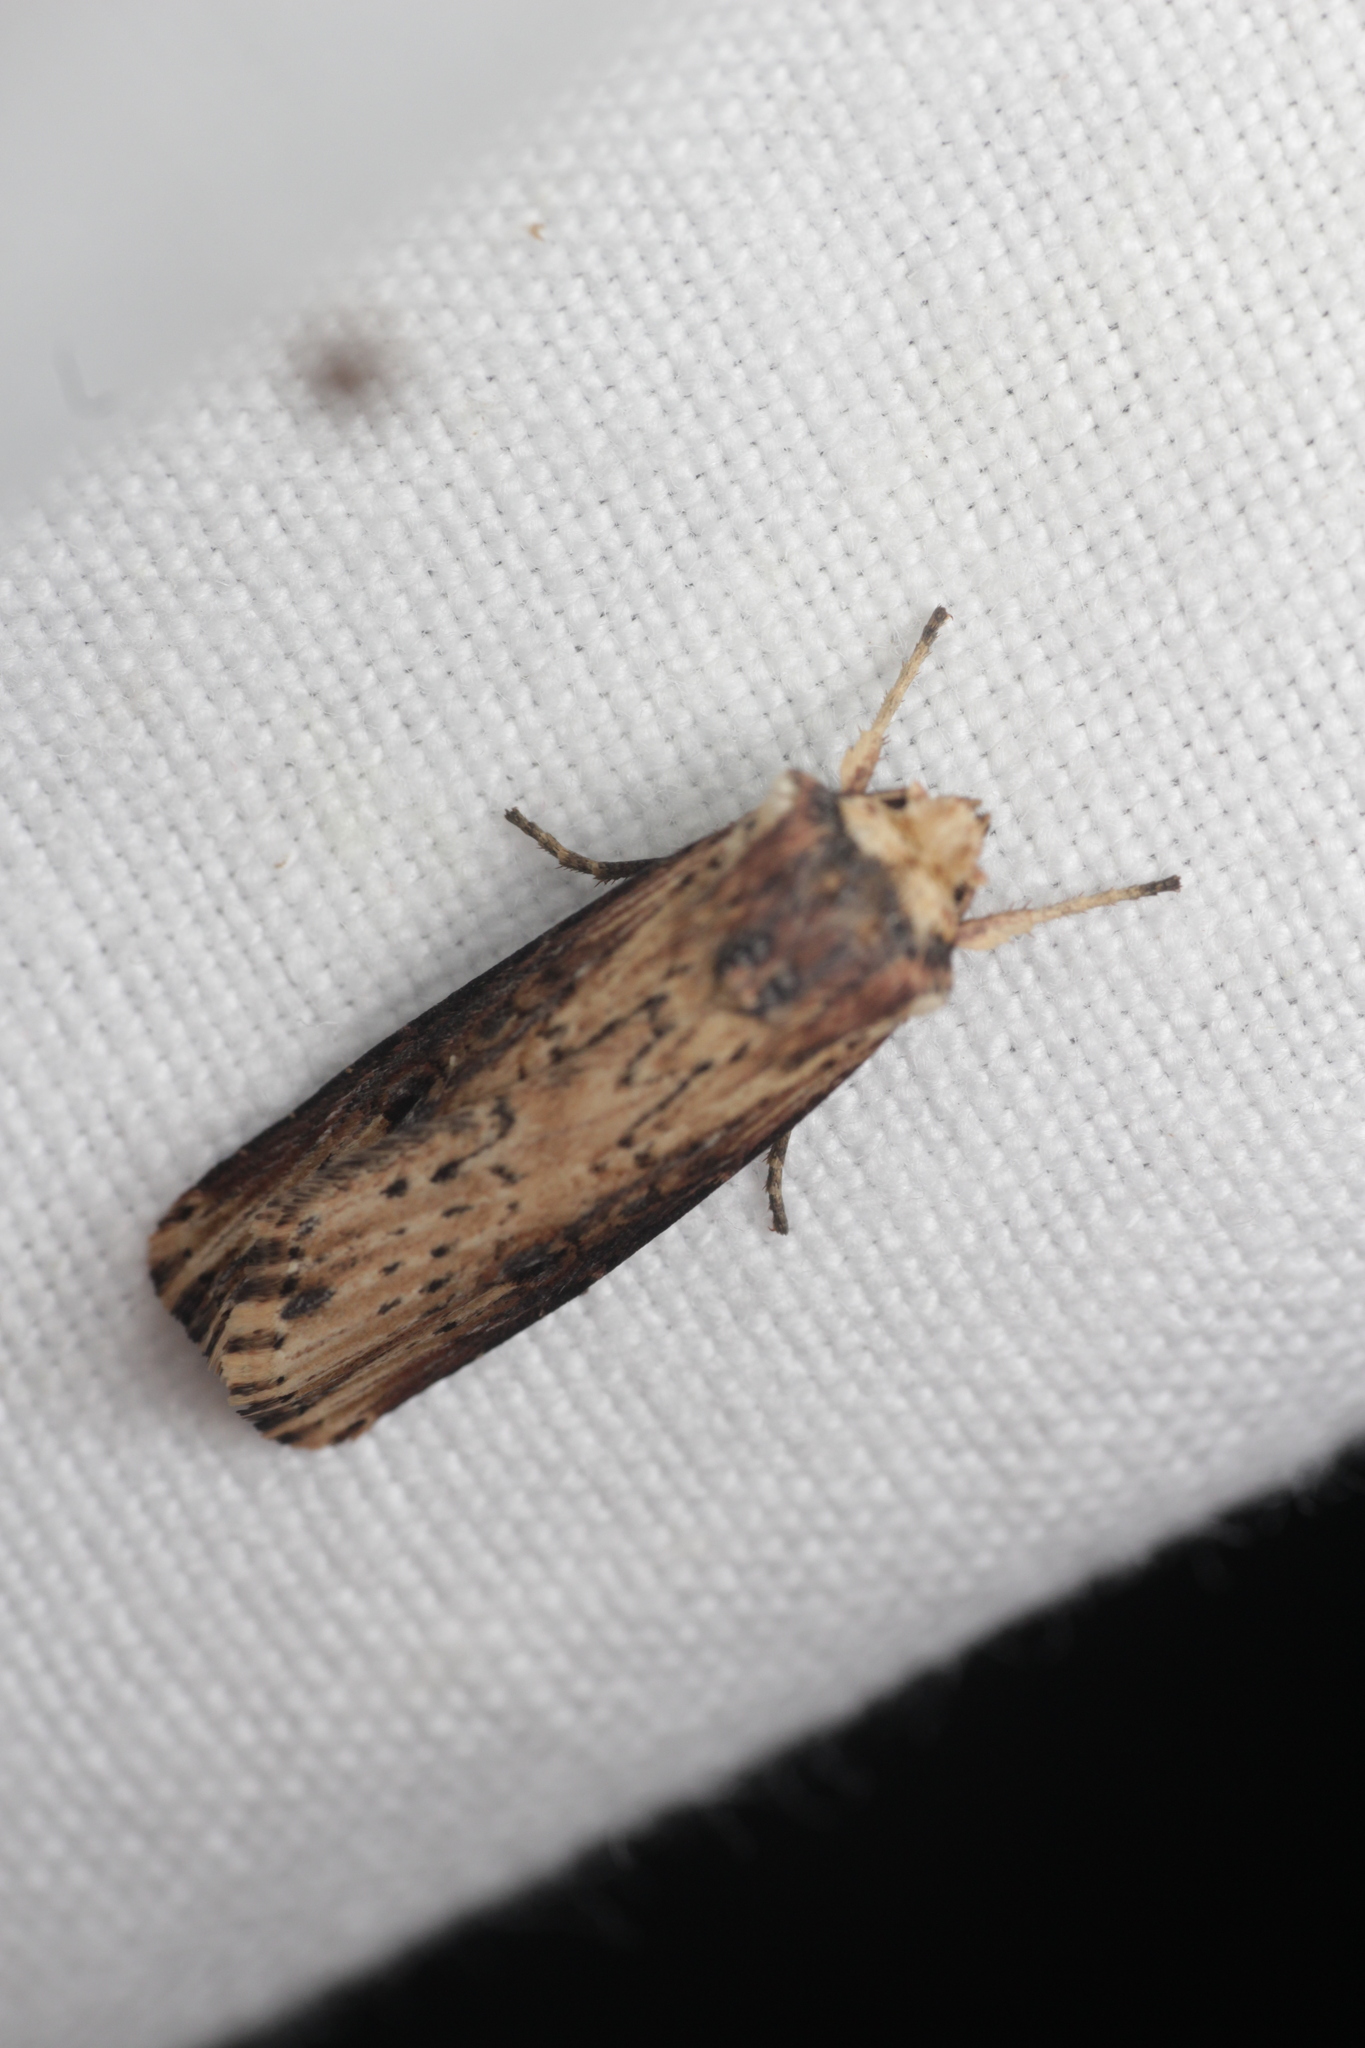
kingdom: Animalia
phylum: Arthropoda
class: Insecta
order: Lepidoptera
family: Noctuidae
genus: Axylia
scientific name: Axylia putris
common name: Flame
